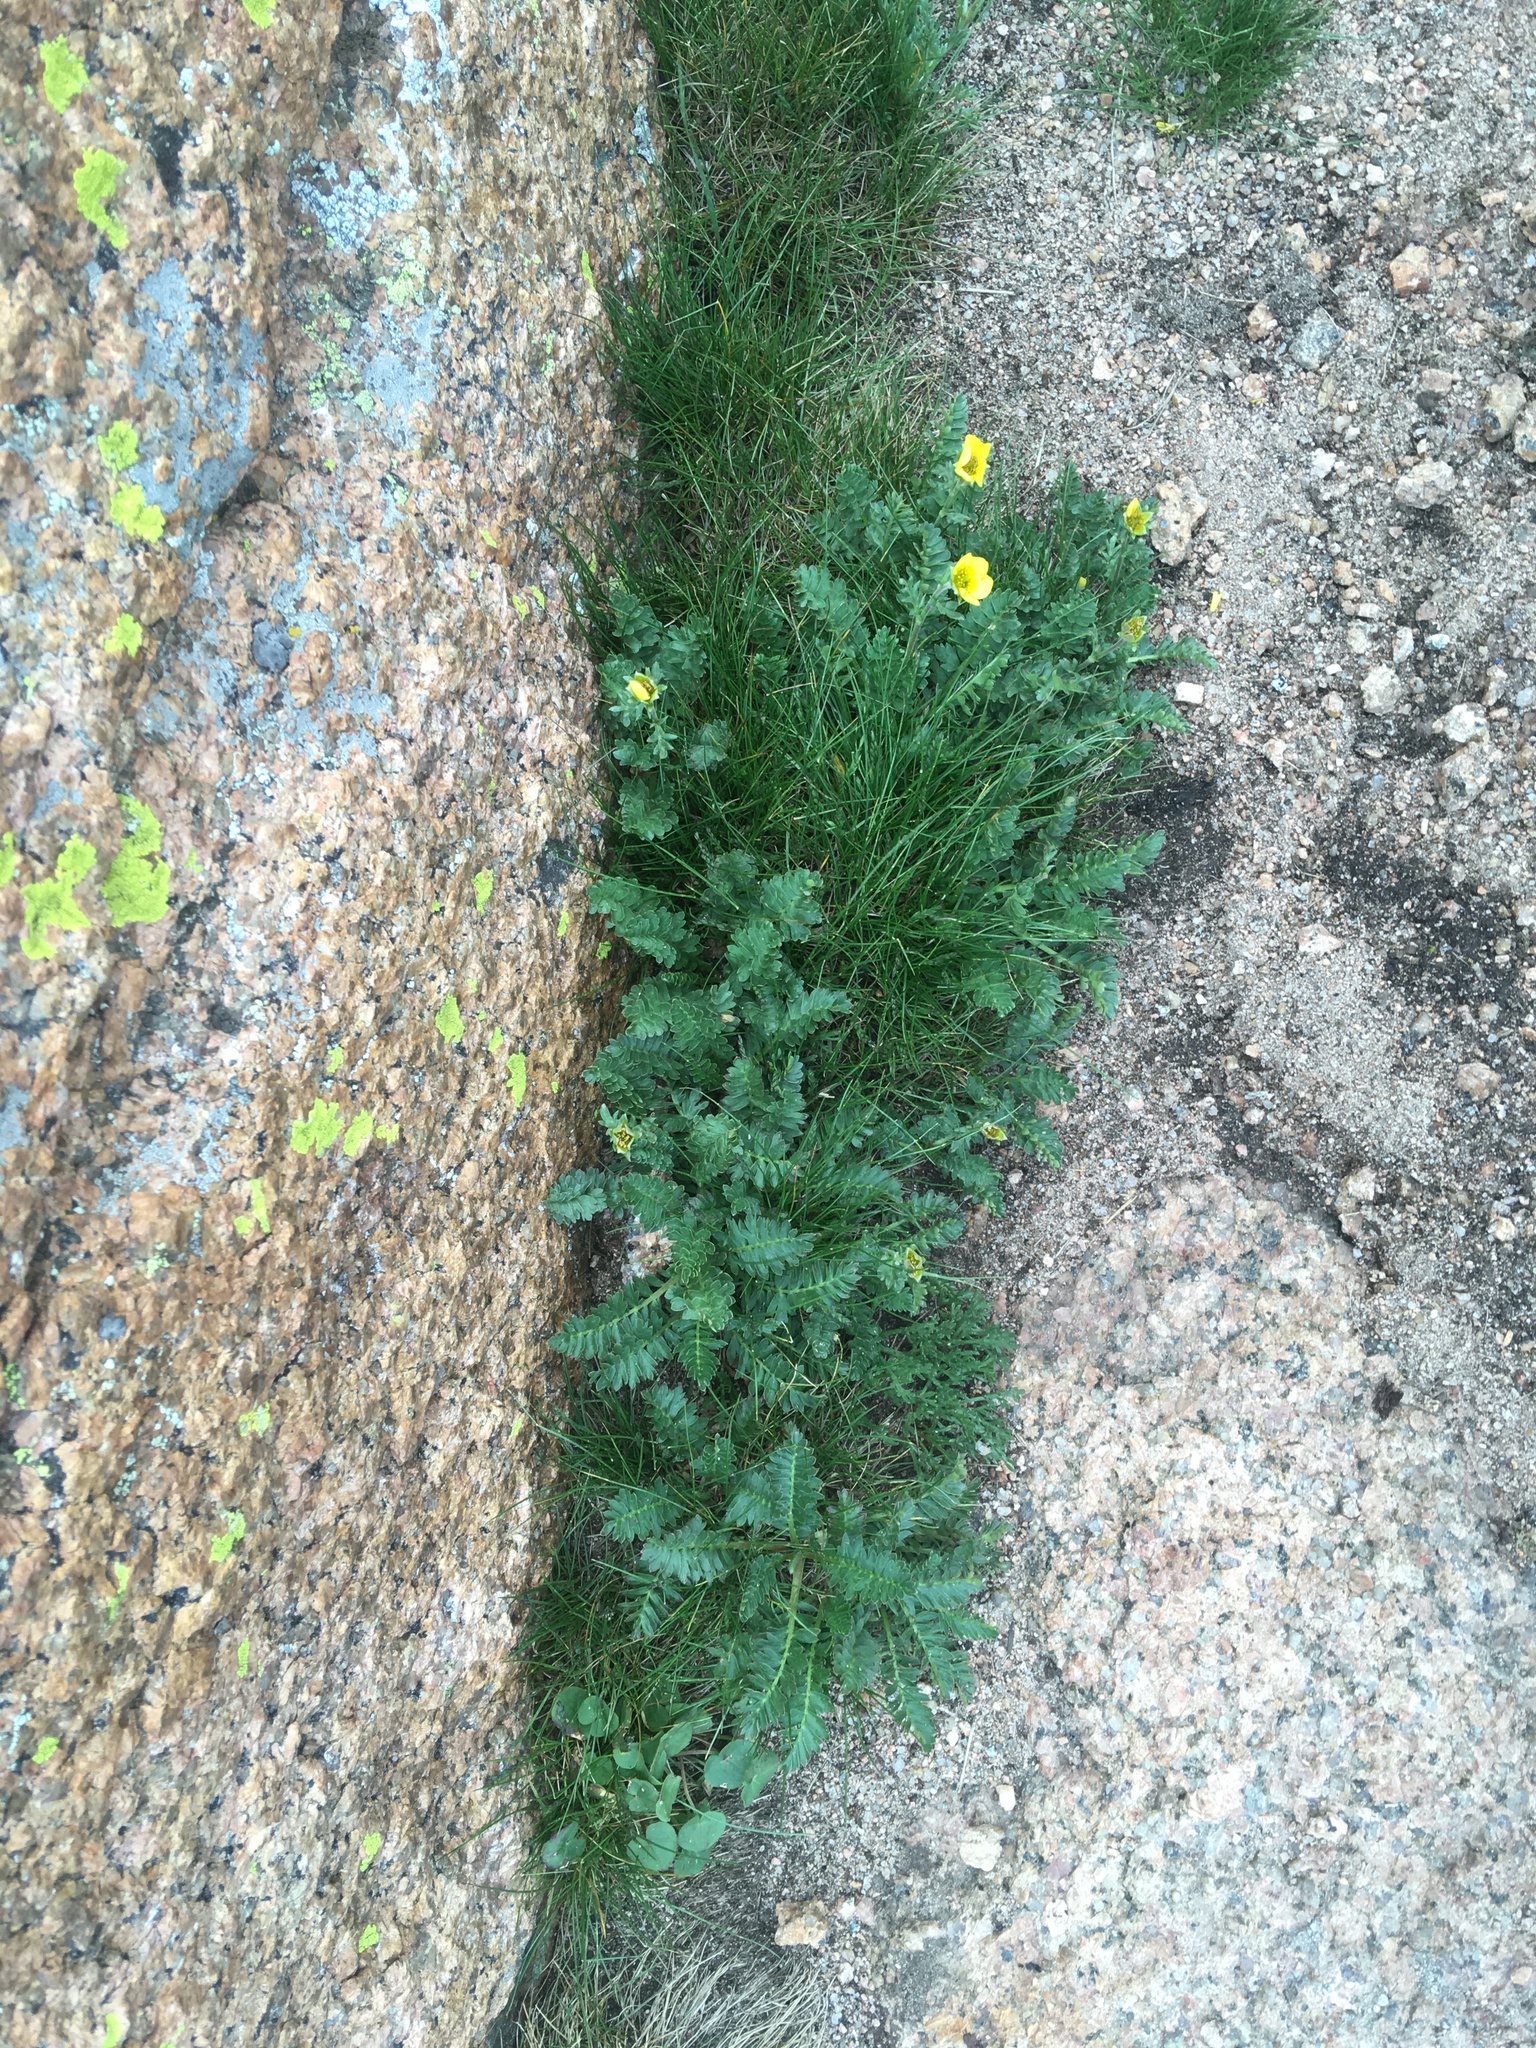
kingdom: Plantae
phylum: Tracheophyta
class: Magnoliopsida
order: Rosales
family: Rosaceae
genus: Geum
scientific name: Geum rossii
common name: Alpine avens
